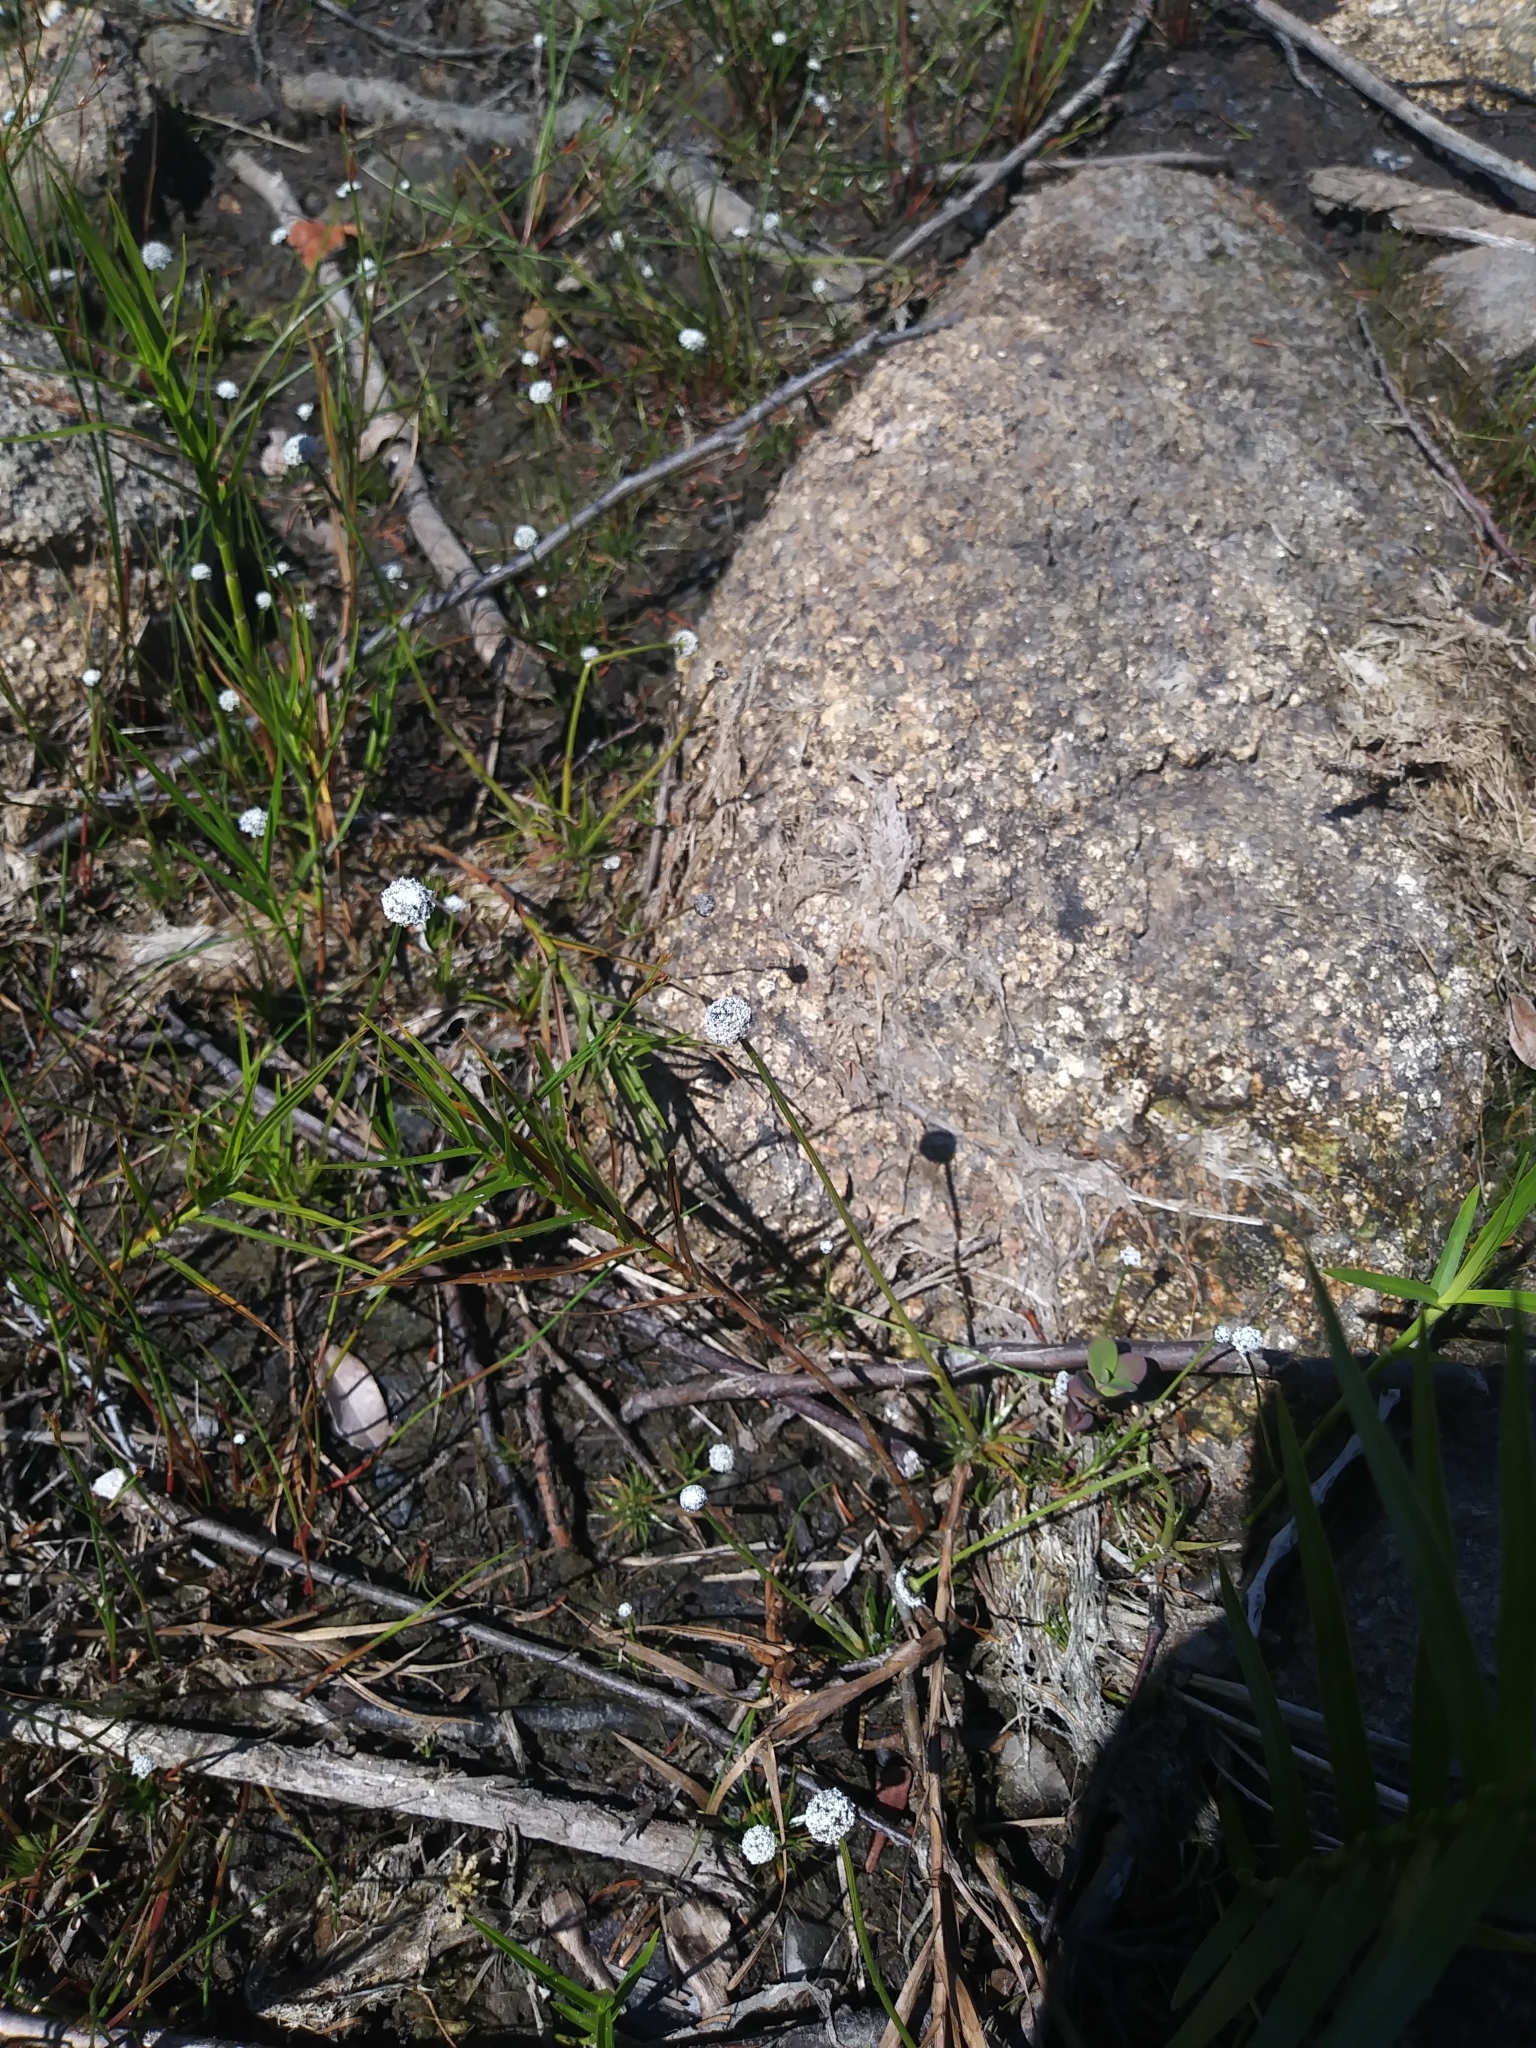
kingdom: Plantae
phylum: Tracheophyta
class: Liliopsida
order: Poales
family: Eriocaulaceae
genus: Eriocaulon
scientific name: Eriocaulon aquaticum
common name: Pipewort
